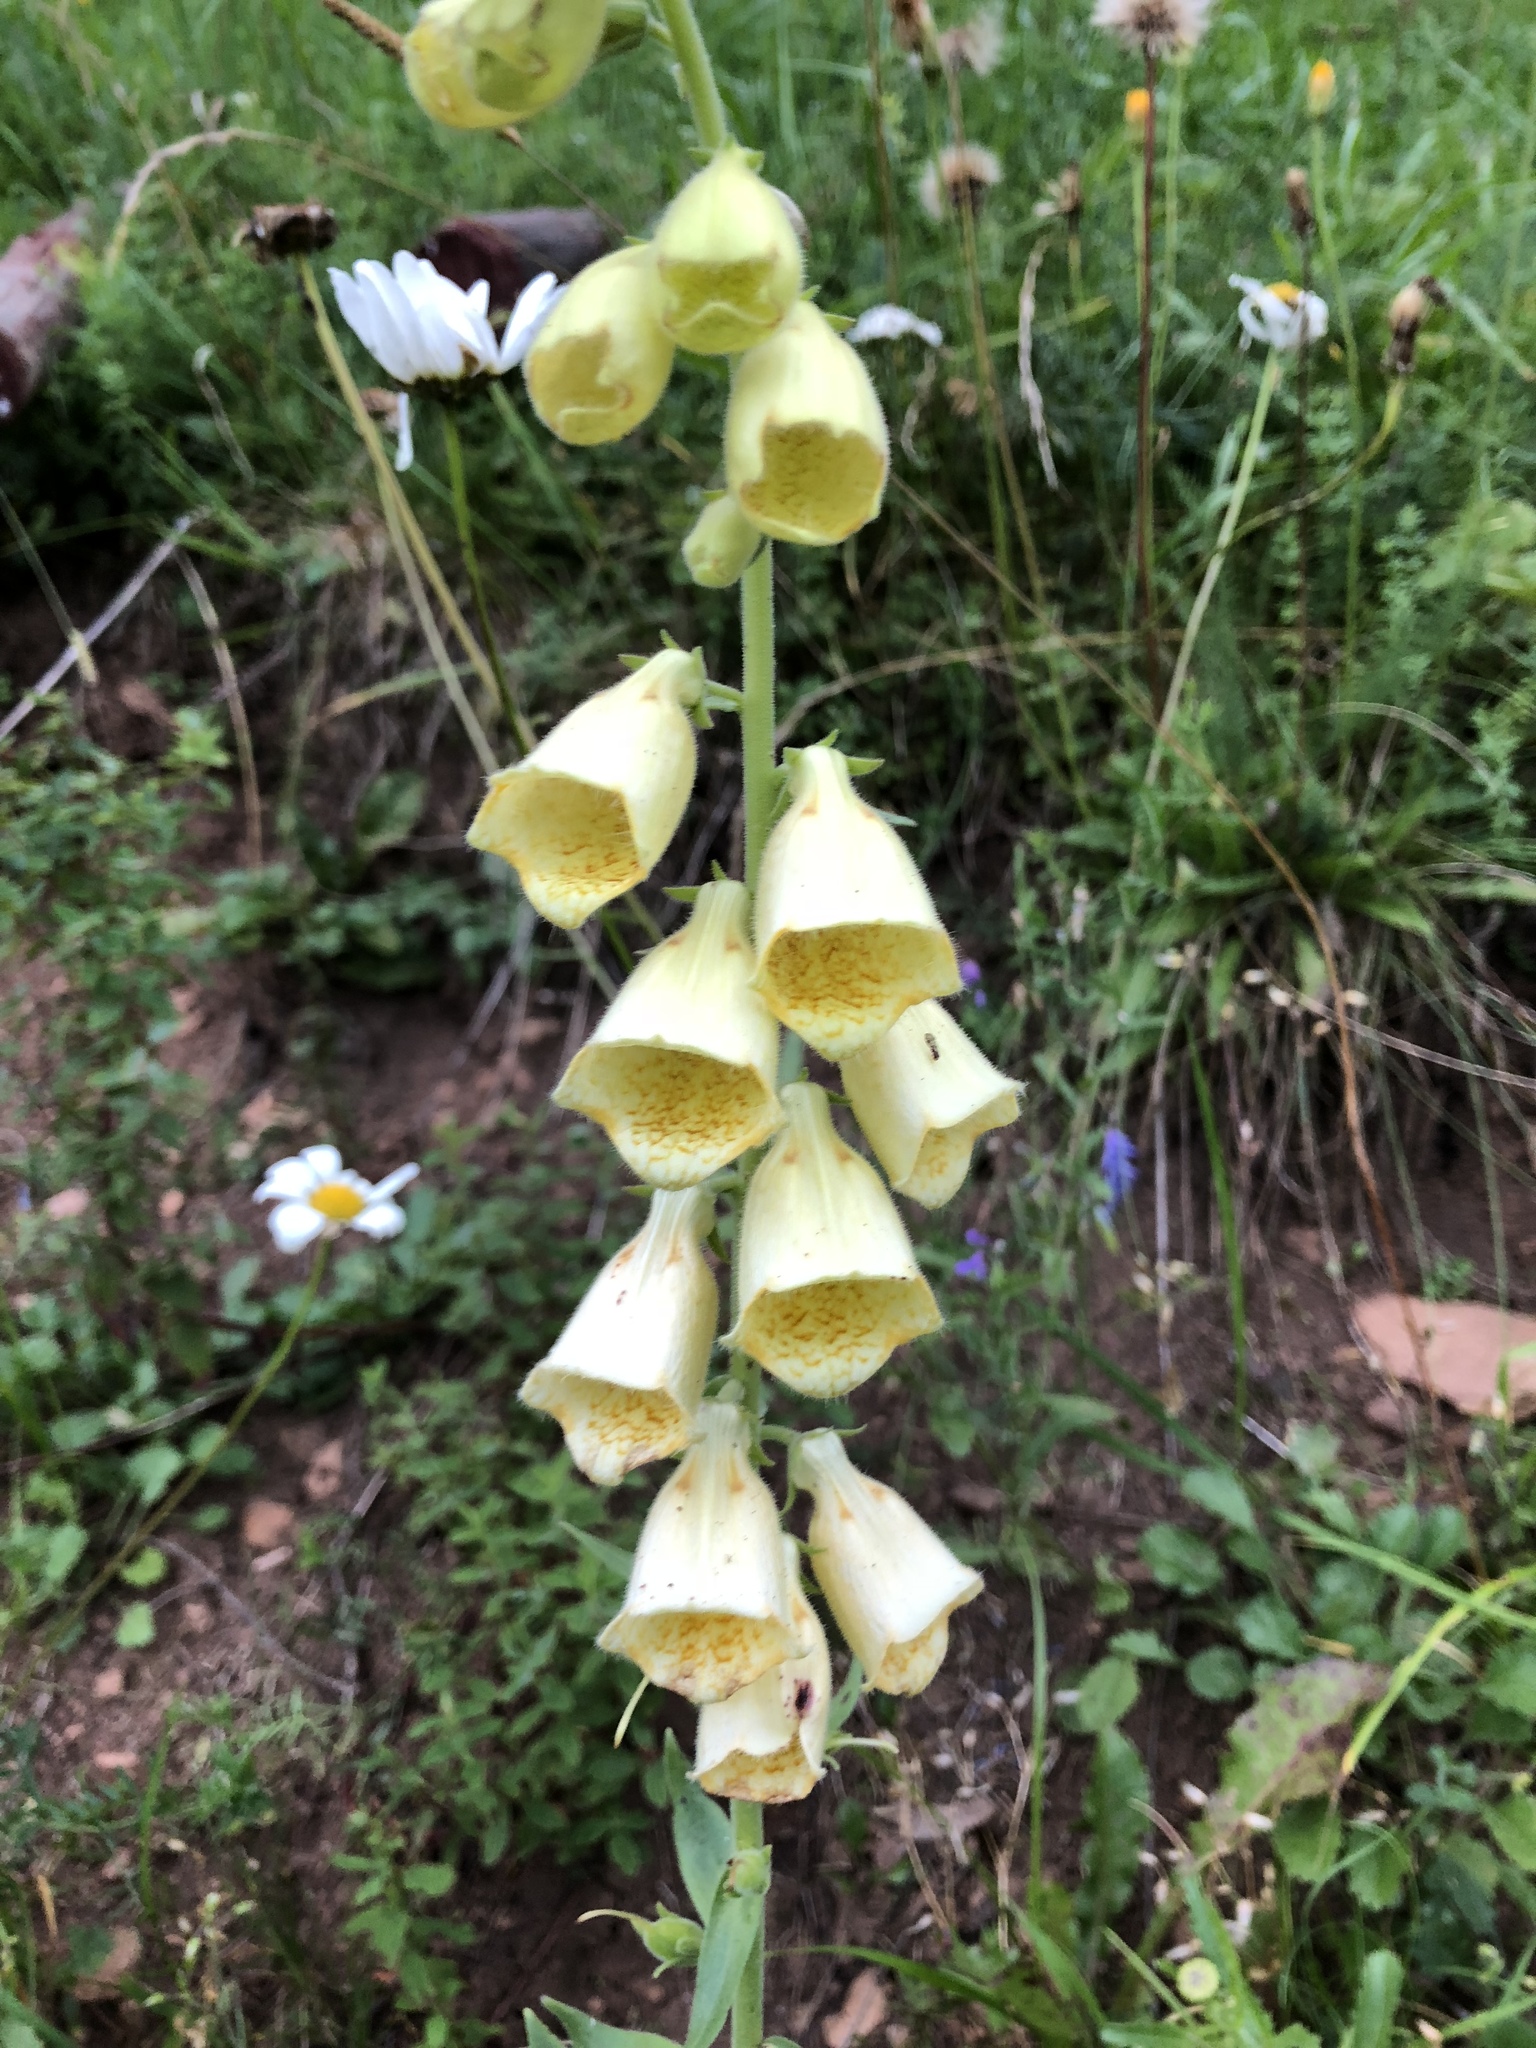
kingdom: Plantae
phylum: Tracheophyta
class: Magnoliopsida
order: Lamiales
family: Plantaginaceae
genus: Digitalis
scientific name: Digitalis grandiflora
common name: Yellow foxglove
